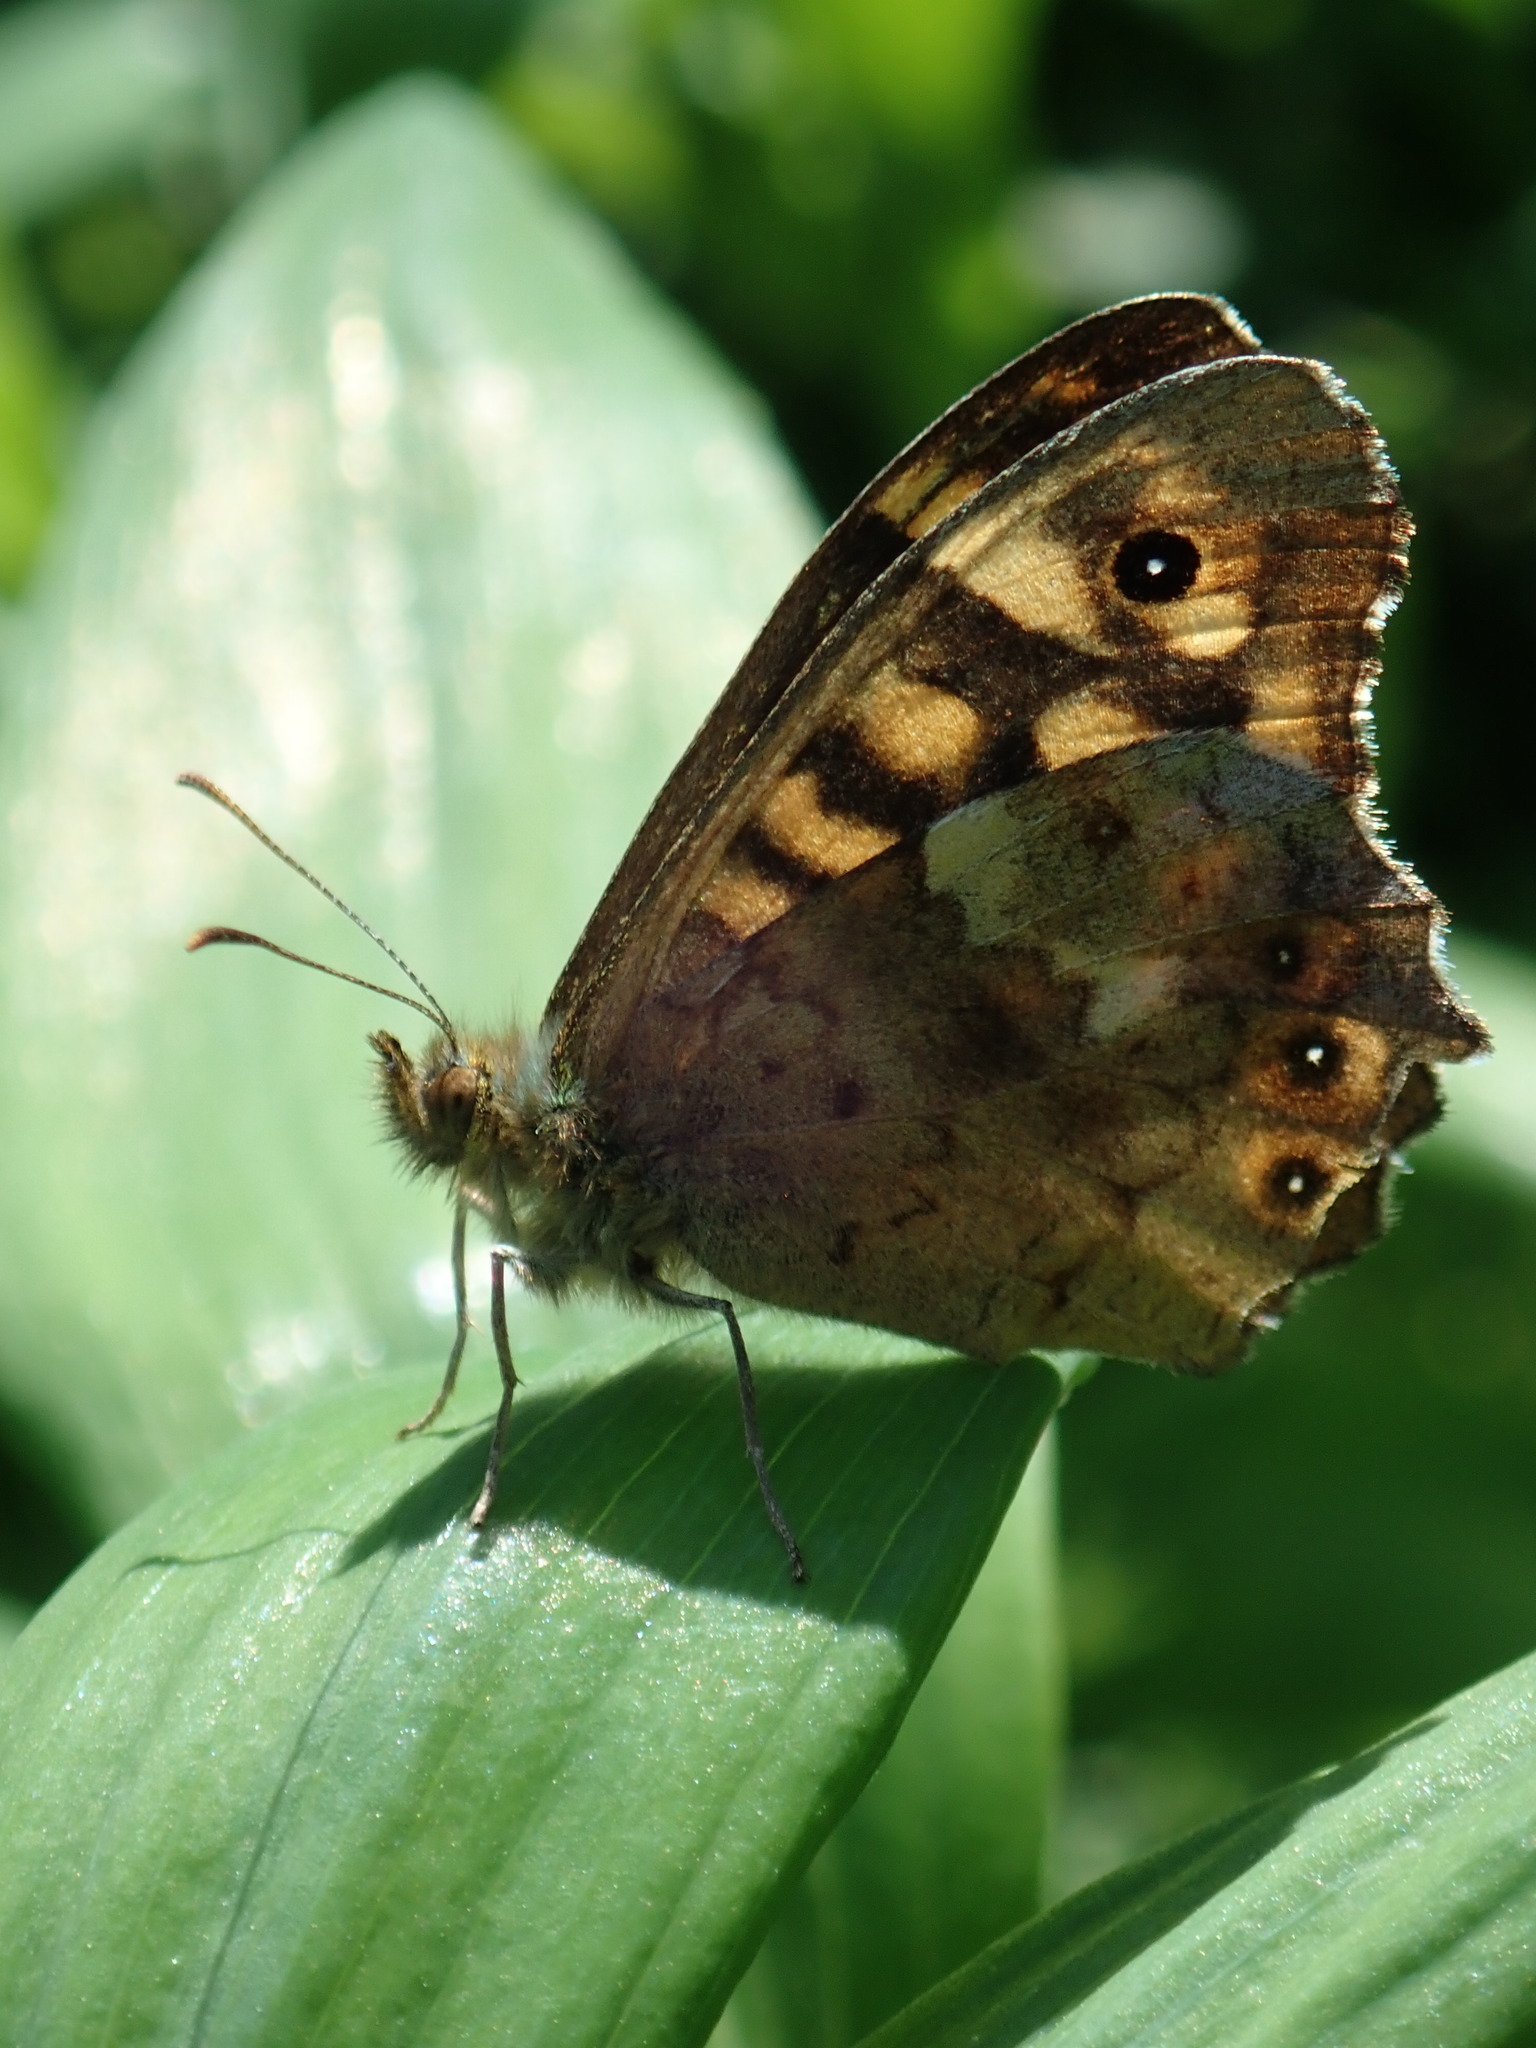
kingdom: Animalia
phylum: Arthropoda
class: Insecta
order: Lepidoptera
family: Nymphalidae
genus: Pararge
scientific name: Pararge aegeria
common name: Speckled wood
